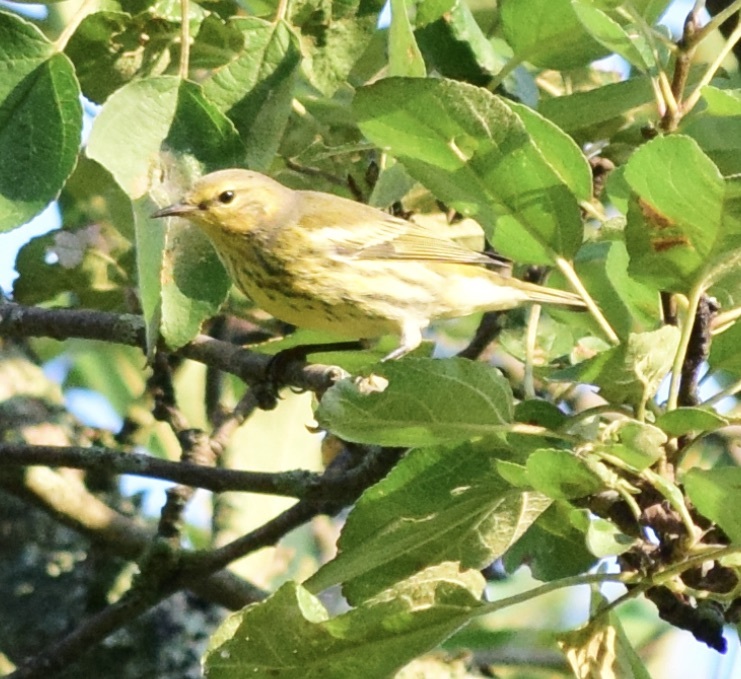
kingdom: Animalia
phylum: Chordata
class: Aves
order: Passeriformes
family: Parulidae
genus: Setophaga
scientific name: Setophaga tigrina
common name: Cape may warbler
